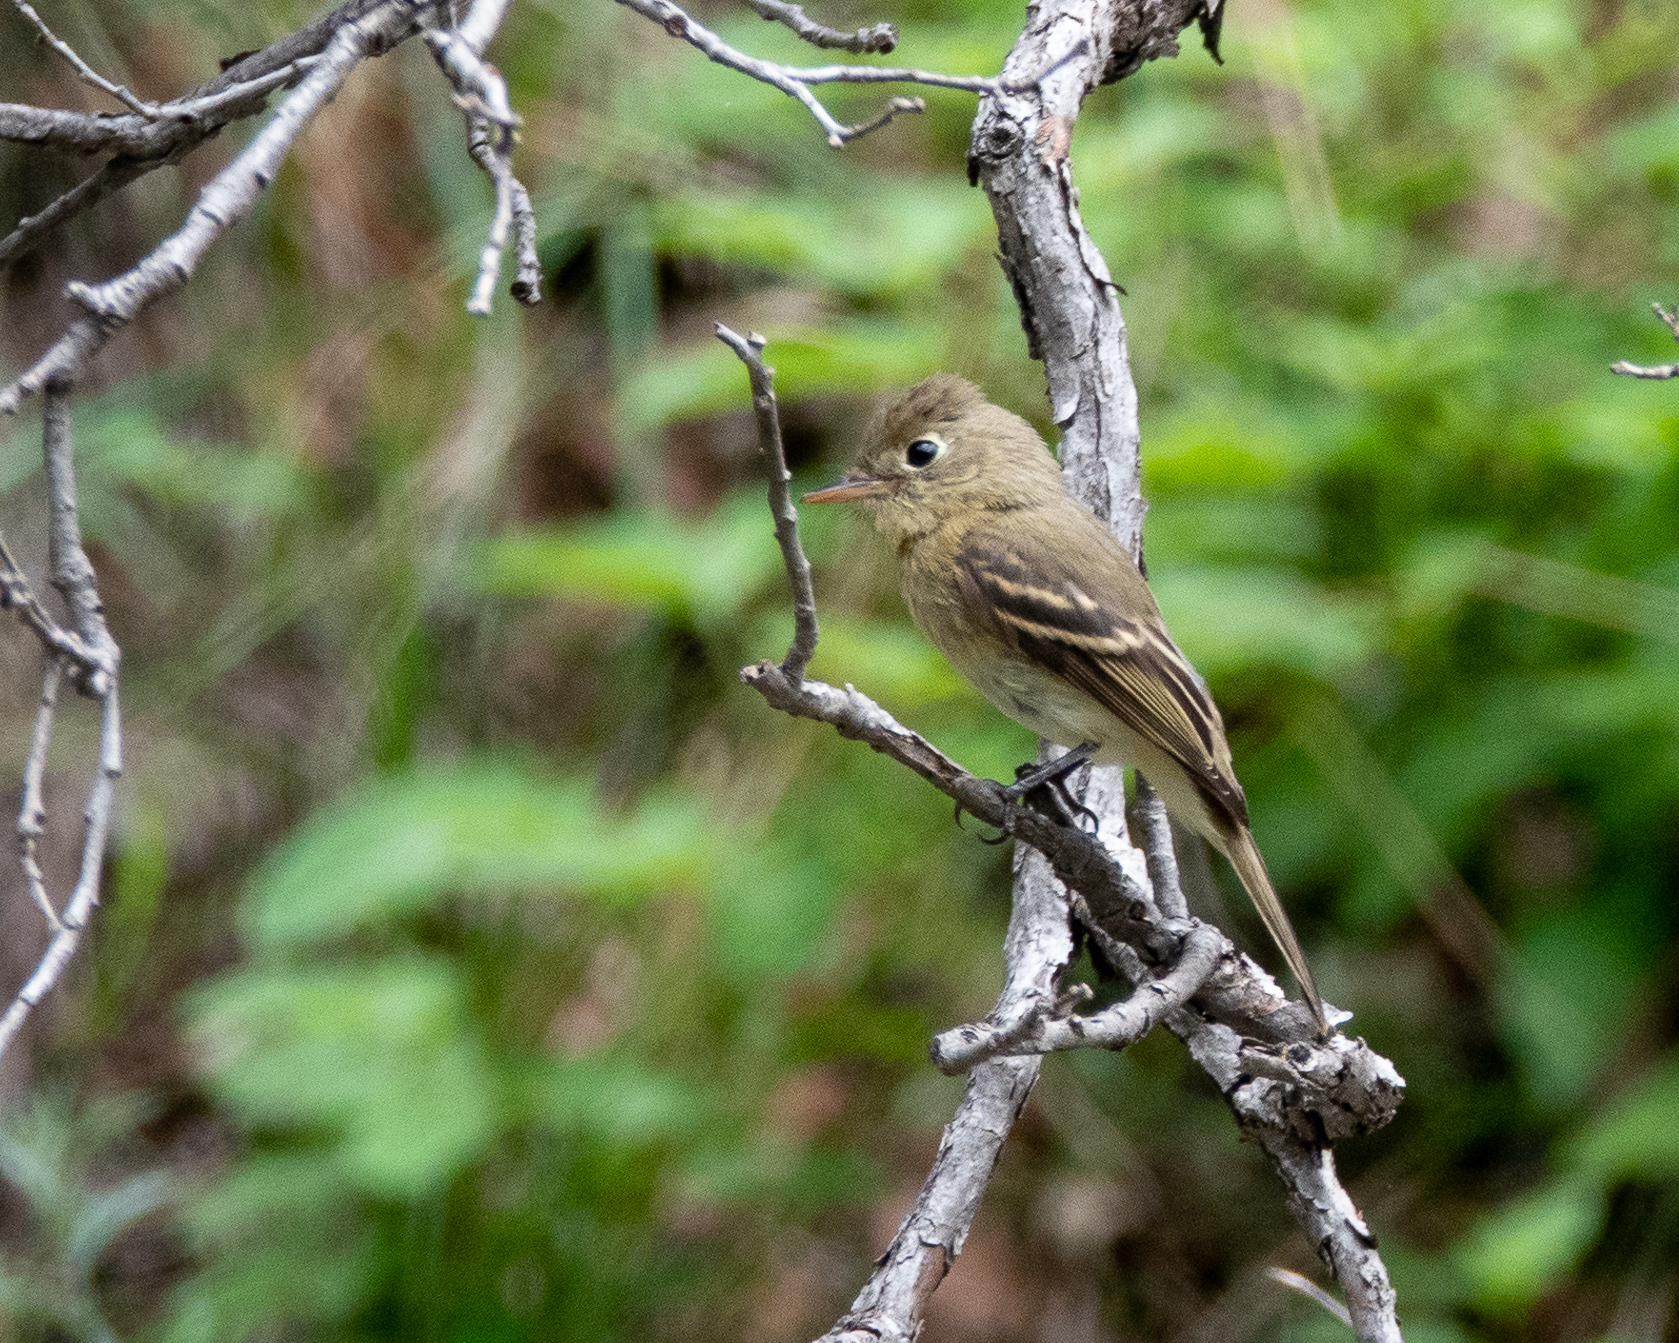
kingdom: Animalia
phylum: Chordata
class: Aves
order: Passeriformes
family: Tyrannidae
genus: Empidonax
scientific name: Empidonax
